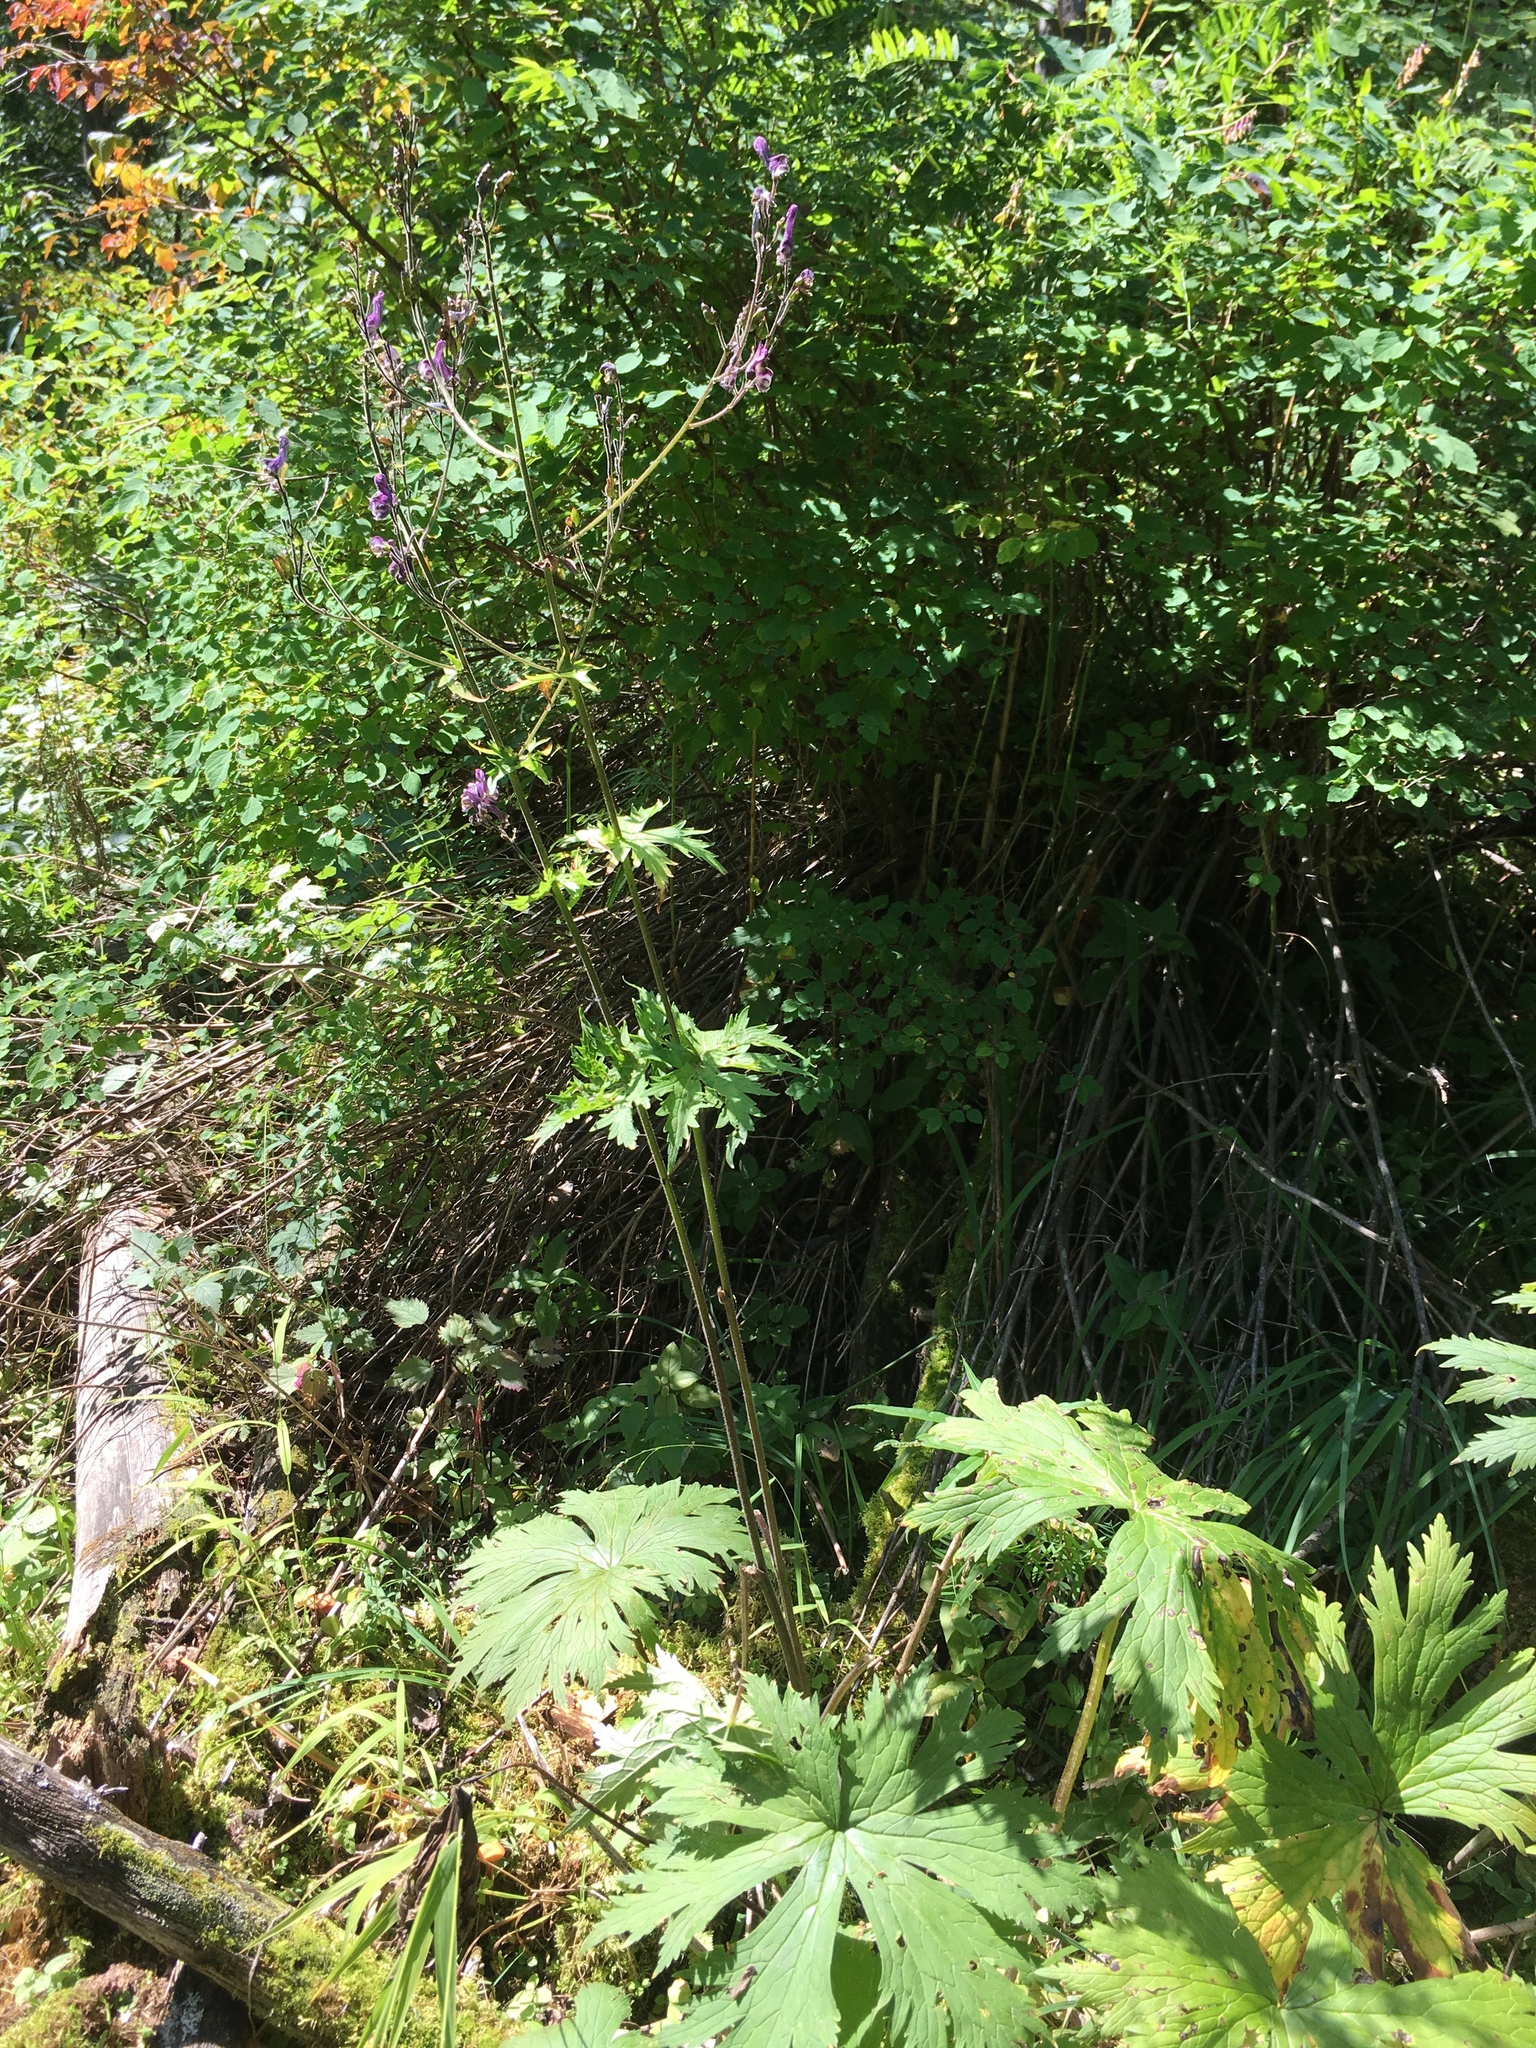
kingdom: Plantae
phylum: Tracheophyta
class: Magnoliopsida
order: Ranunculales
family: Ranunculaceae
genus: Aconitum
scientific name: Aconitum septentrionale
